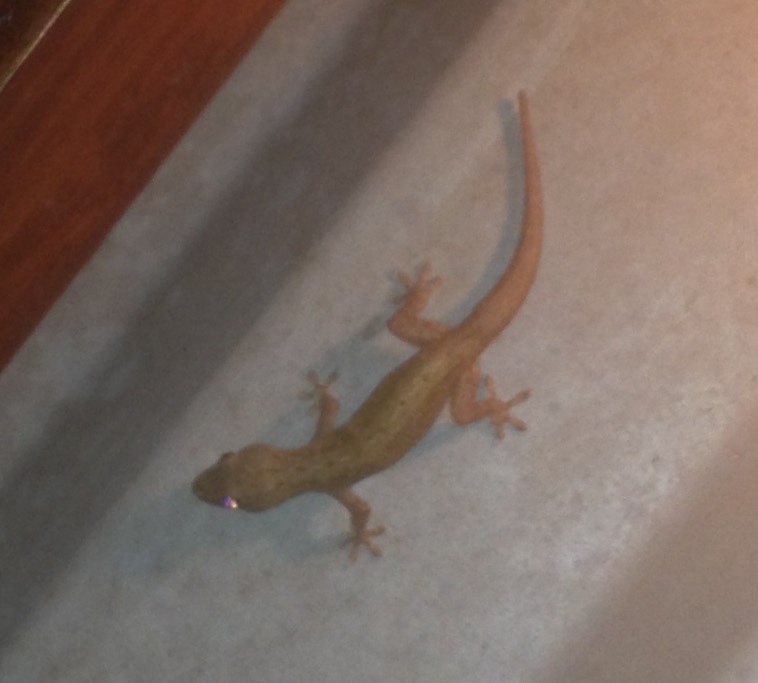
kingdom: Animalia
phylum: Chordata
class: Squamata
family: Gekkonidae
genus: Hemidactylus
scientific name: Hemidactylus frenatus
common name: Common house gecko
